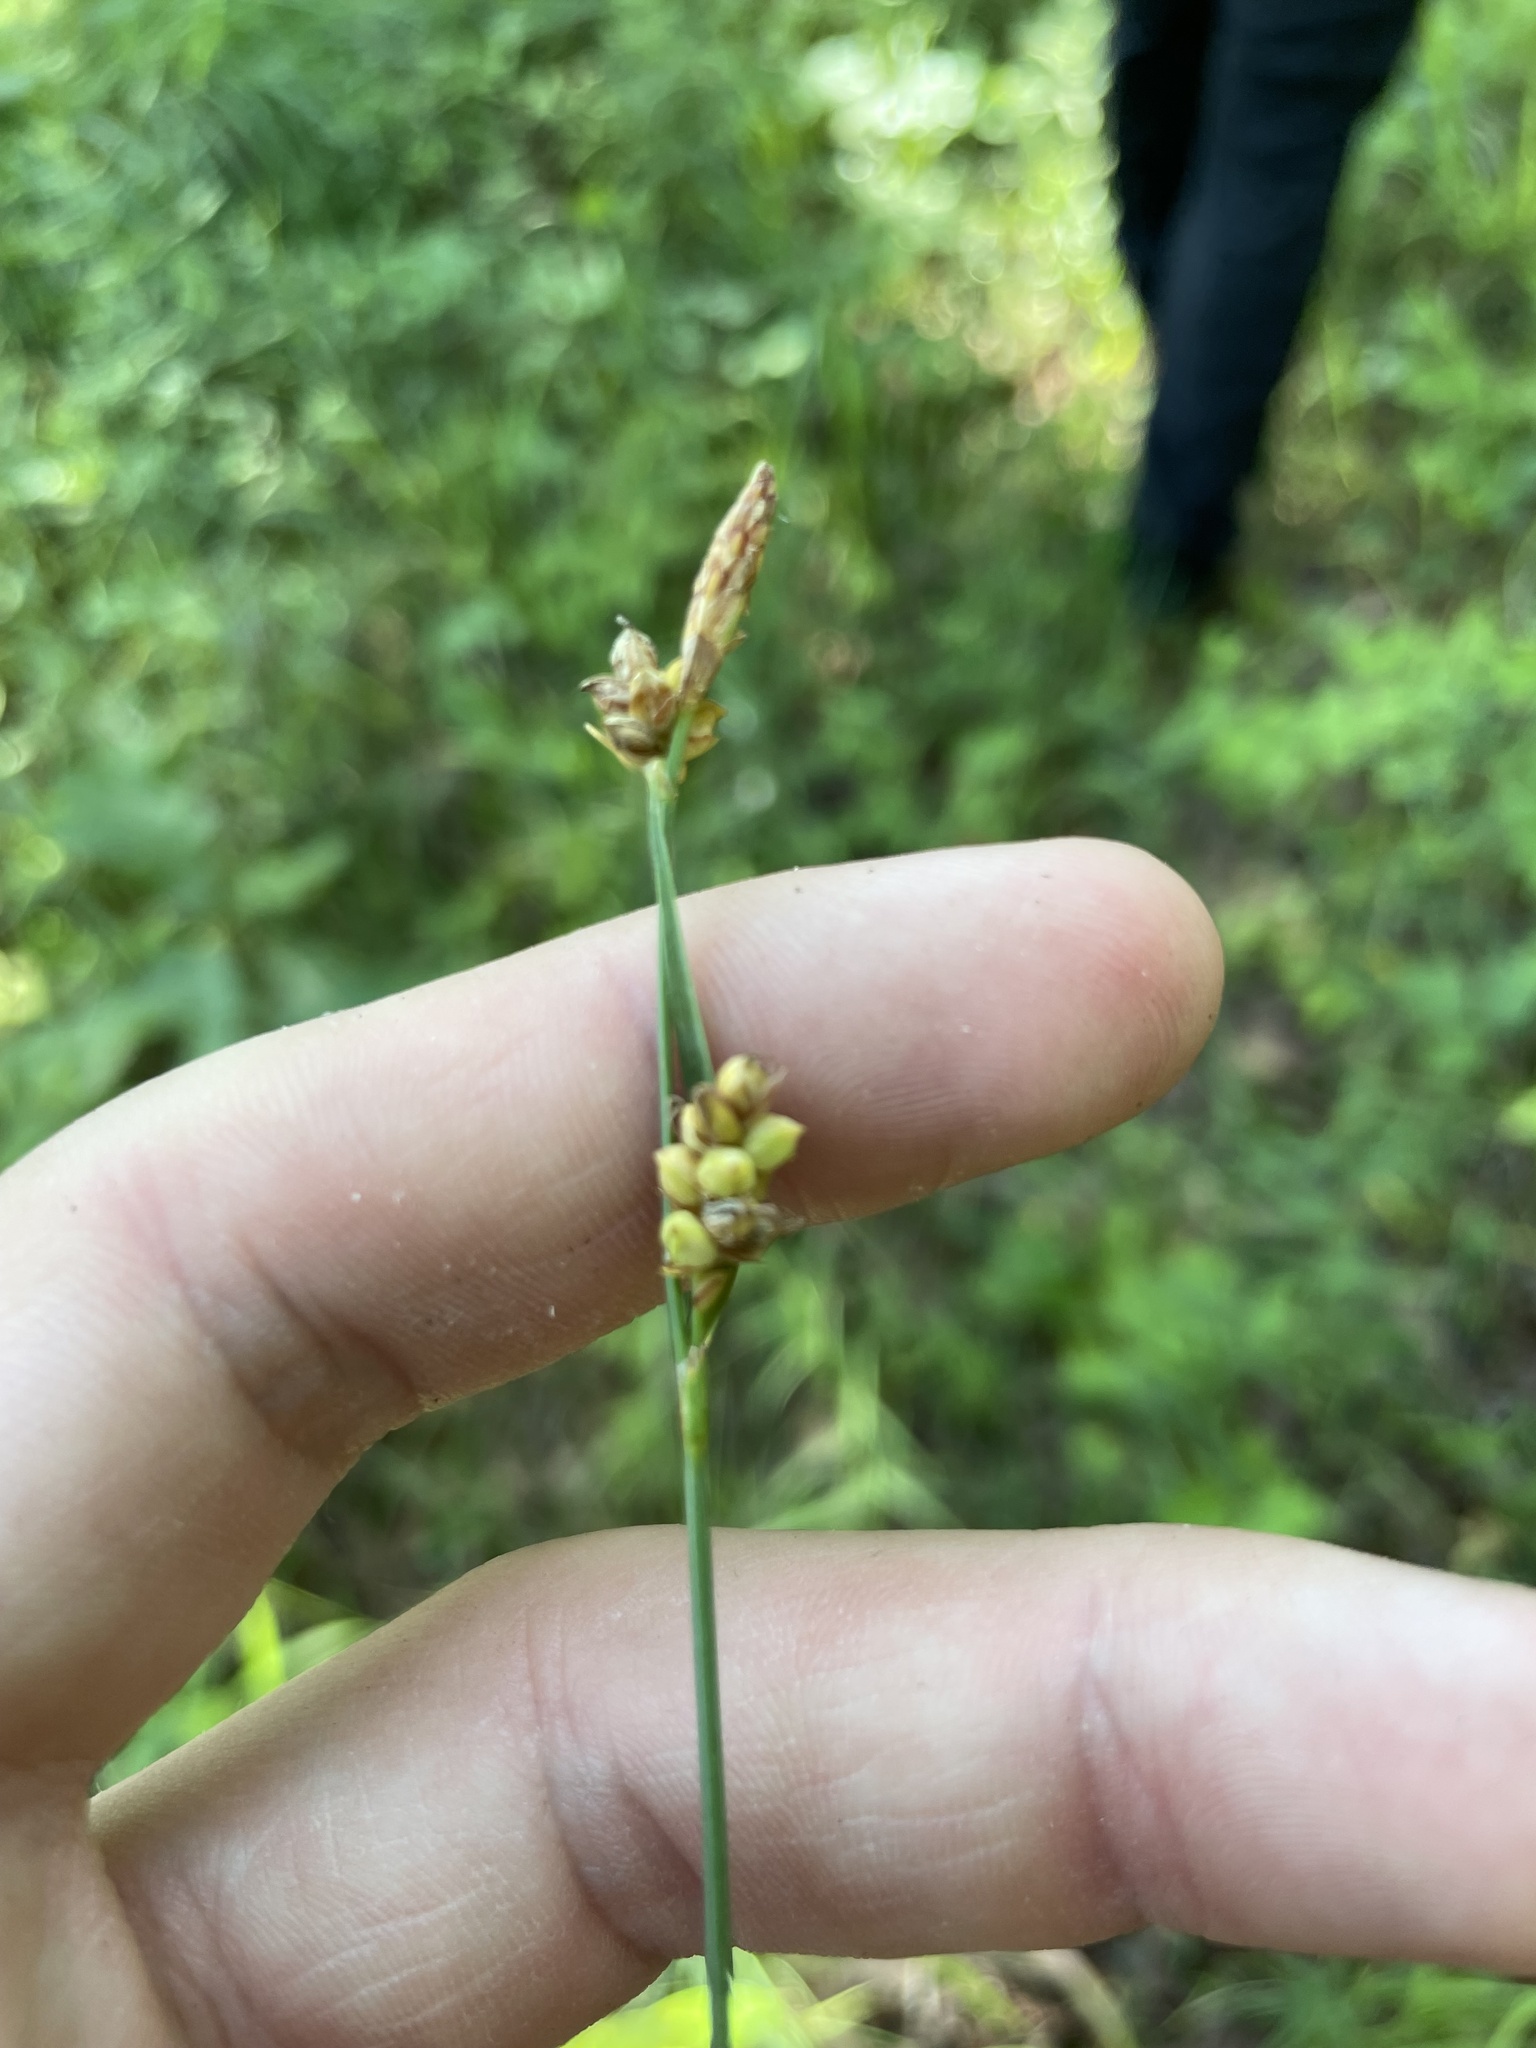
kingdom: Plantae
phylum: Tracheophyta
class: Liliopsida
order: Poales
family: Cyperaceae
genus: Carex
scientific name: Carex meadii
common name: Mead's sedge
